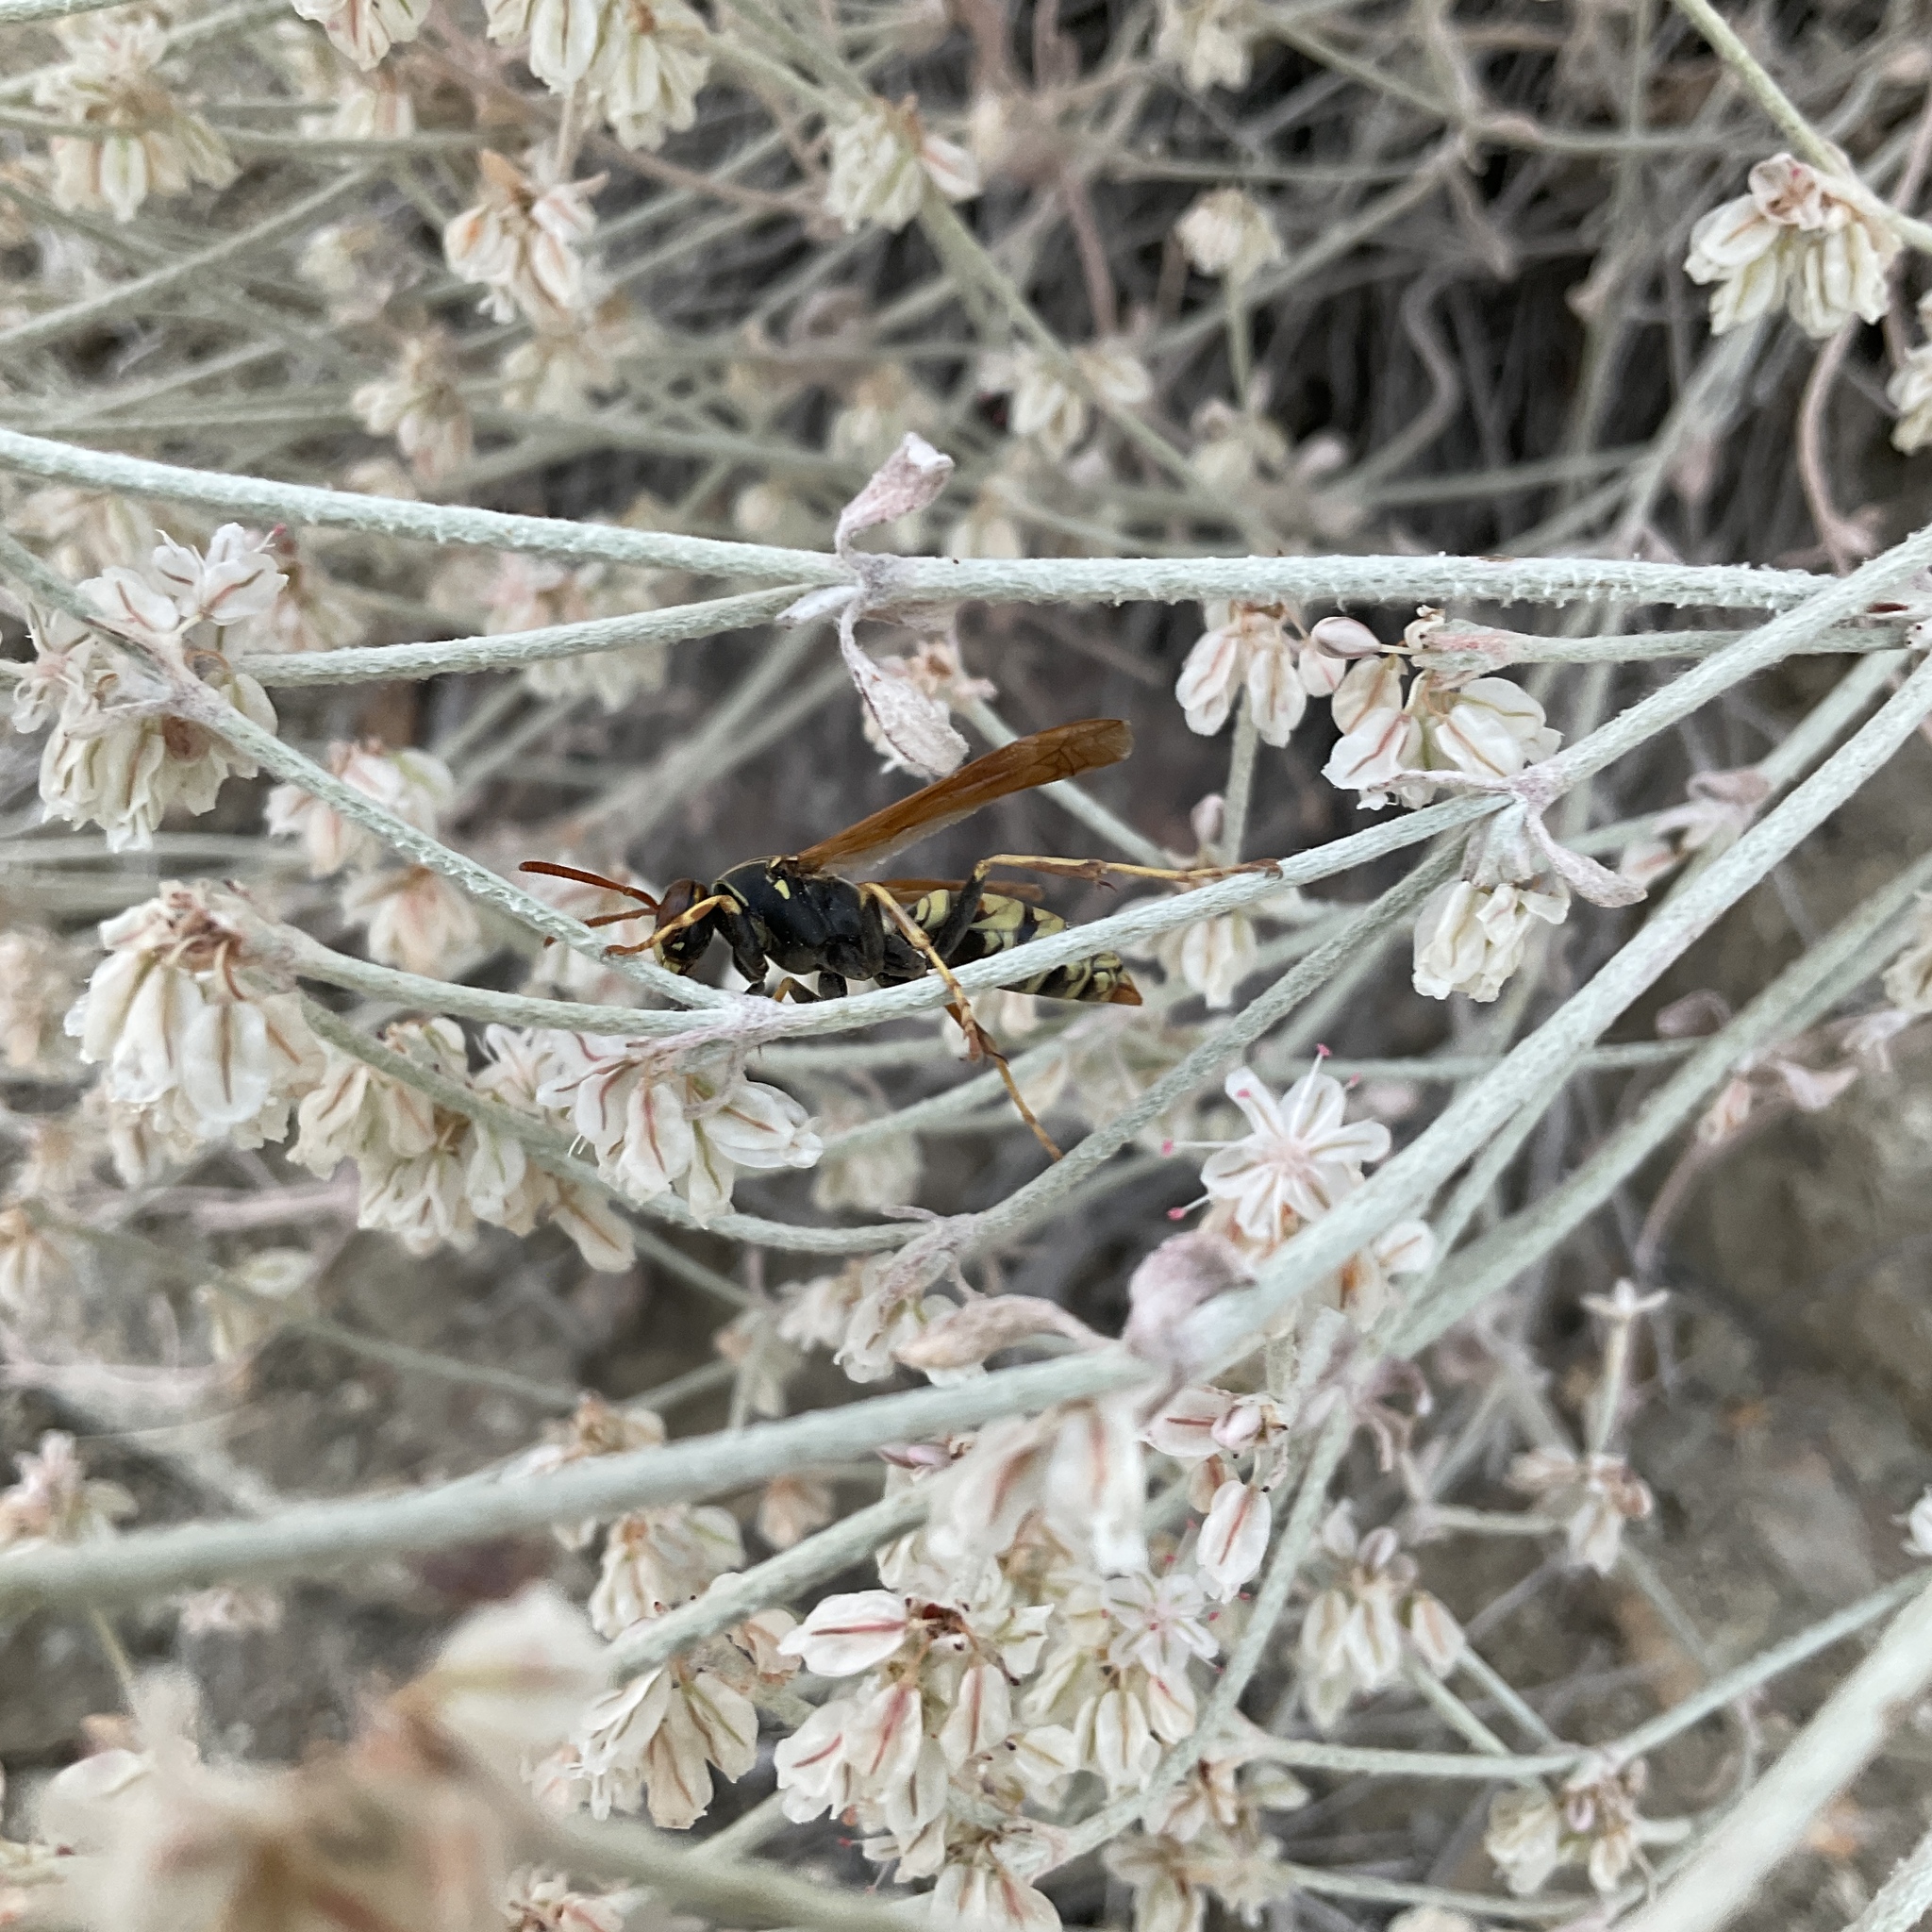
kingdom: Animalia
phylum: Arthropoda
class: Insecta
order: Hymenoptera
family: Eumenidae
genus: Polistes
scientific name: Polistes aurifer
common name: Paper wasp
